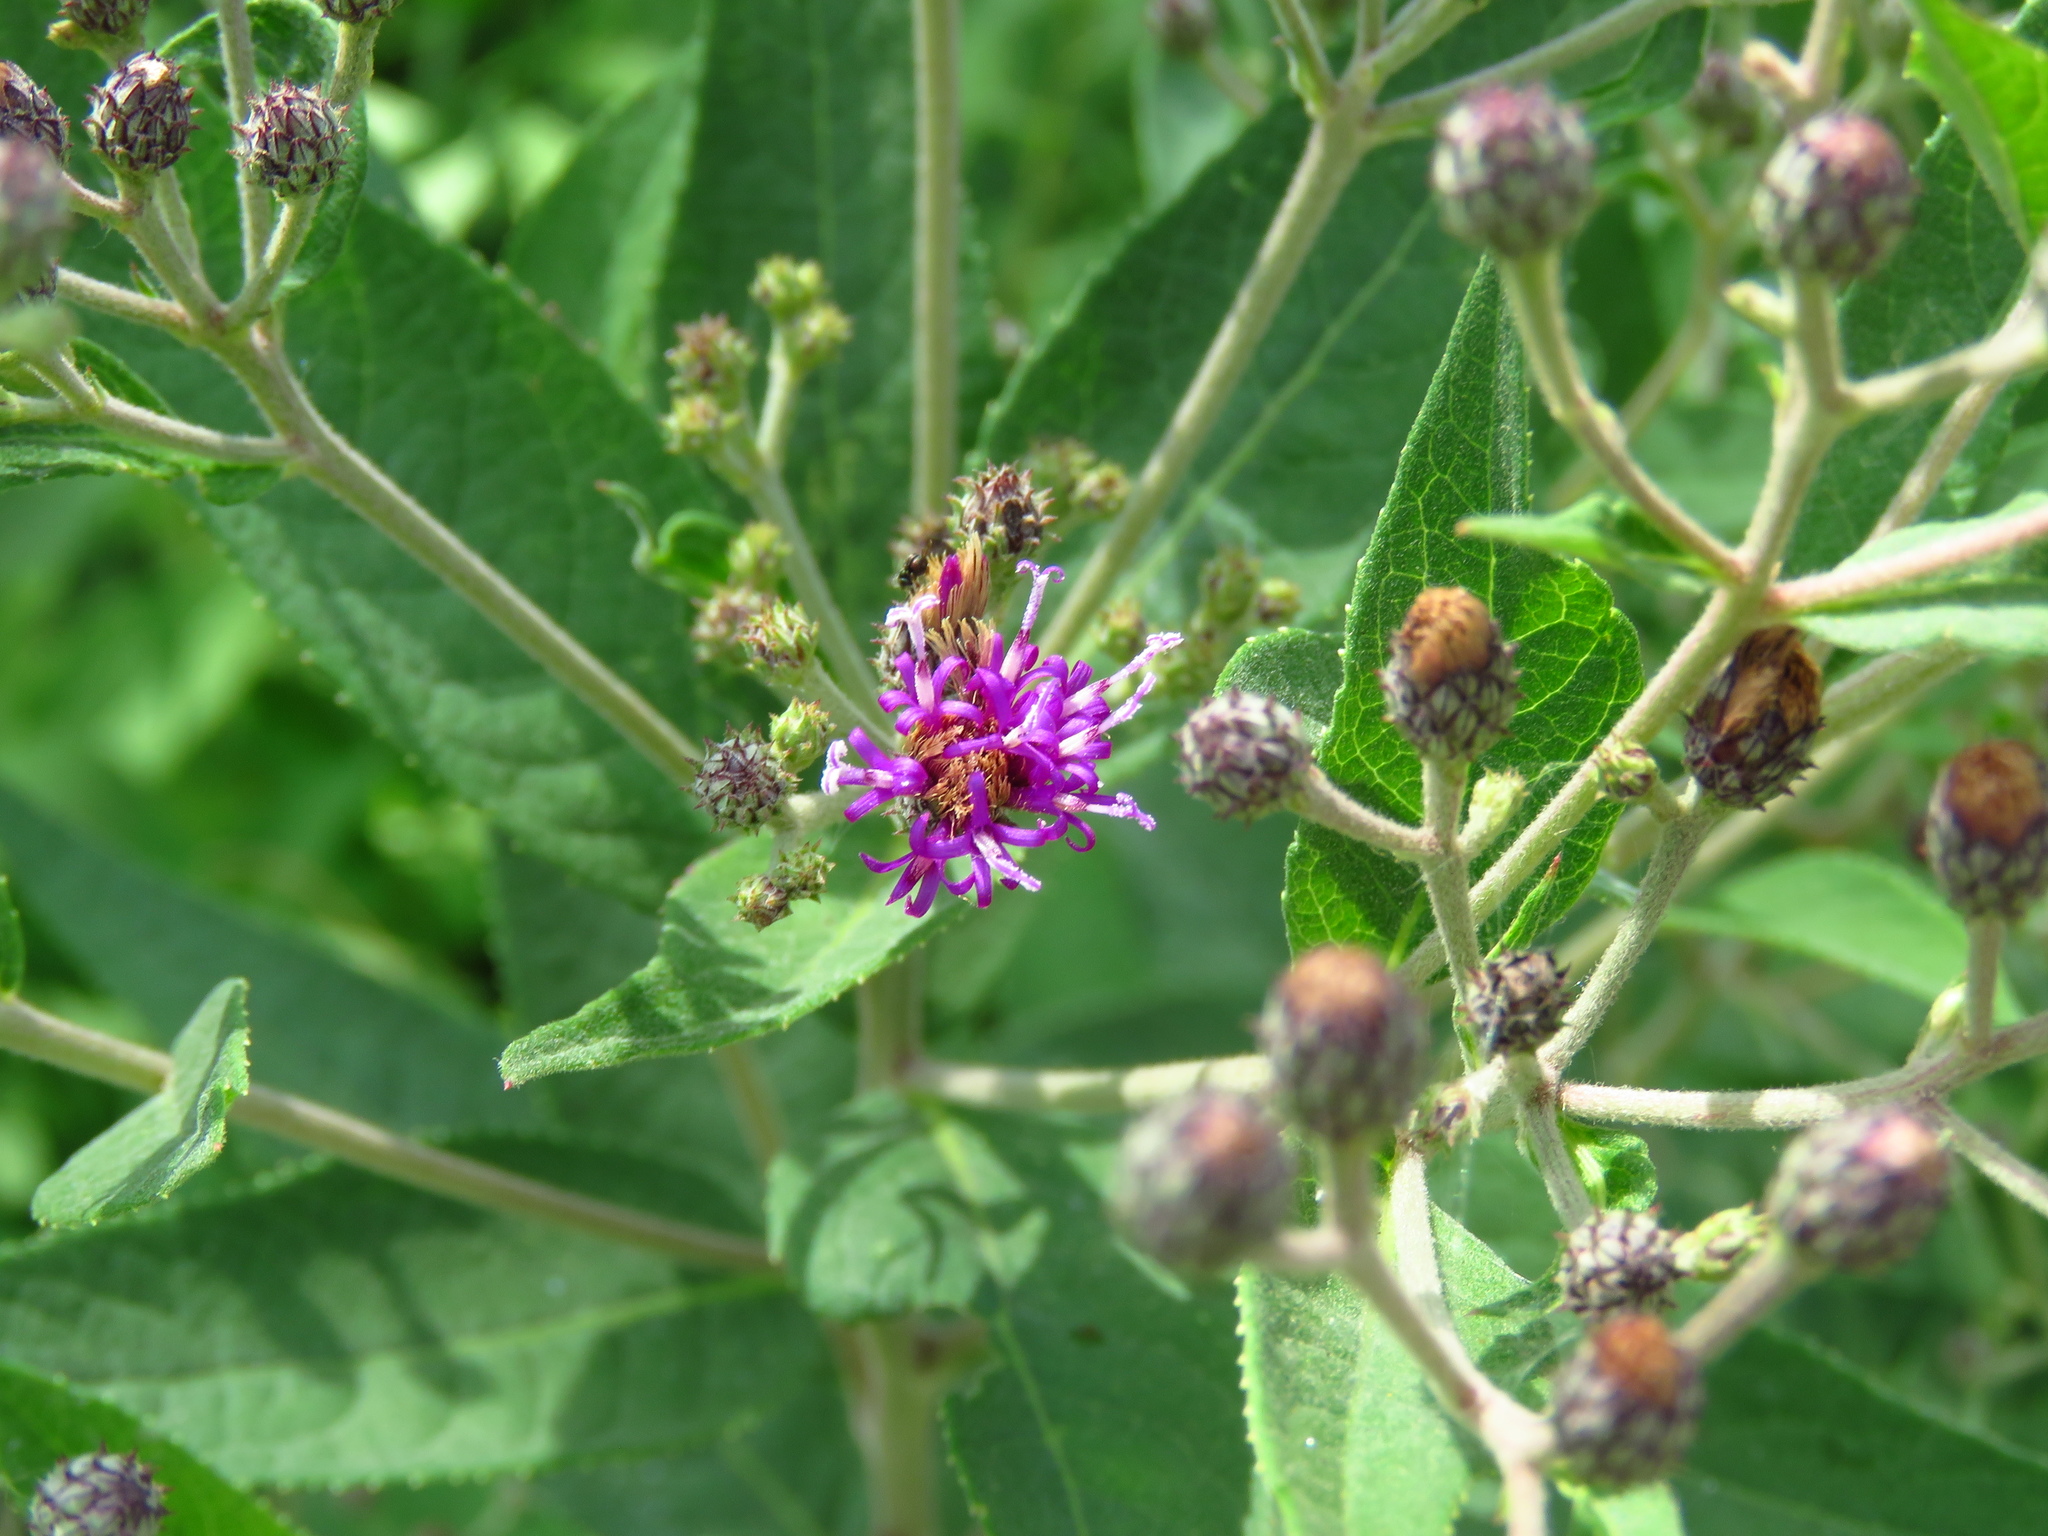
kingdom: Plantae
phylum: Tracheophyta
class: Magnoliopsida
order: Asterales
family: Asteraceae
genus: Vernonia
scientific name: Vernonia baldwinii
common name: Western ironweed
